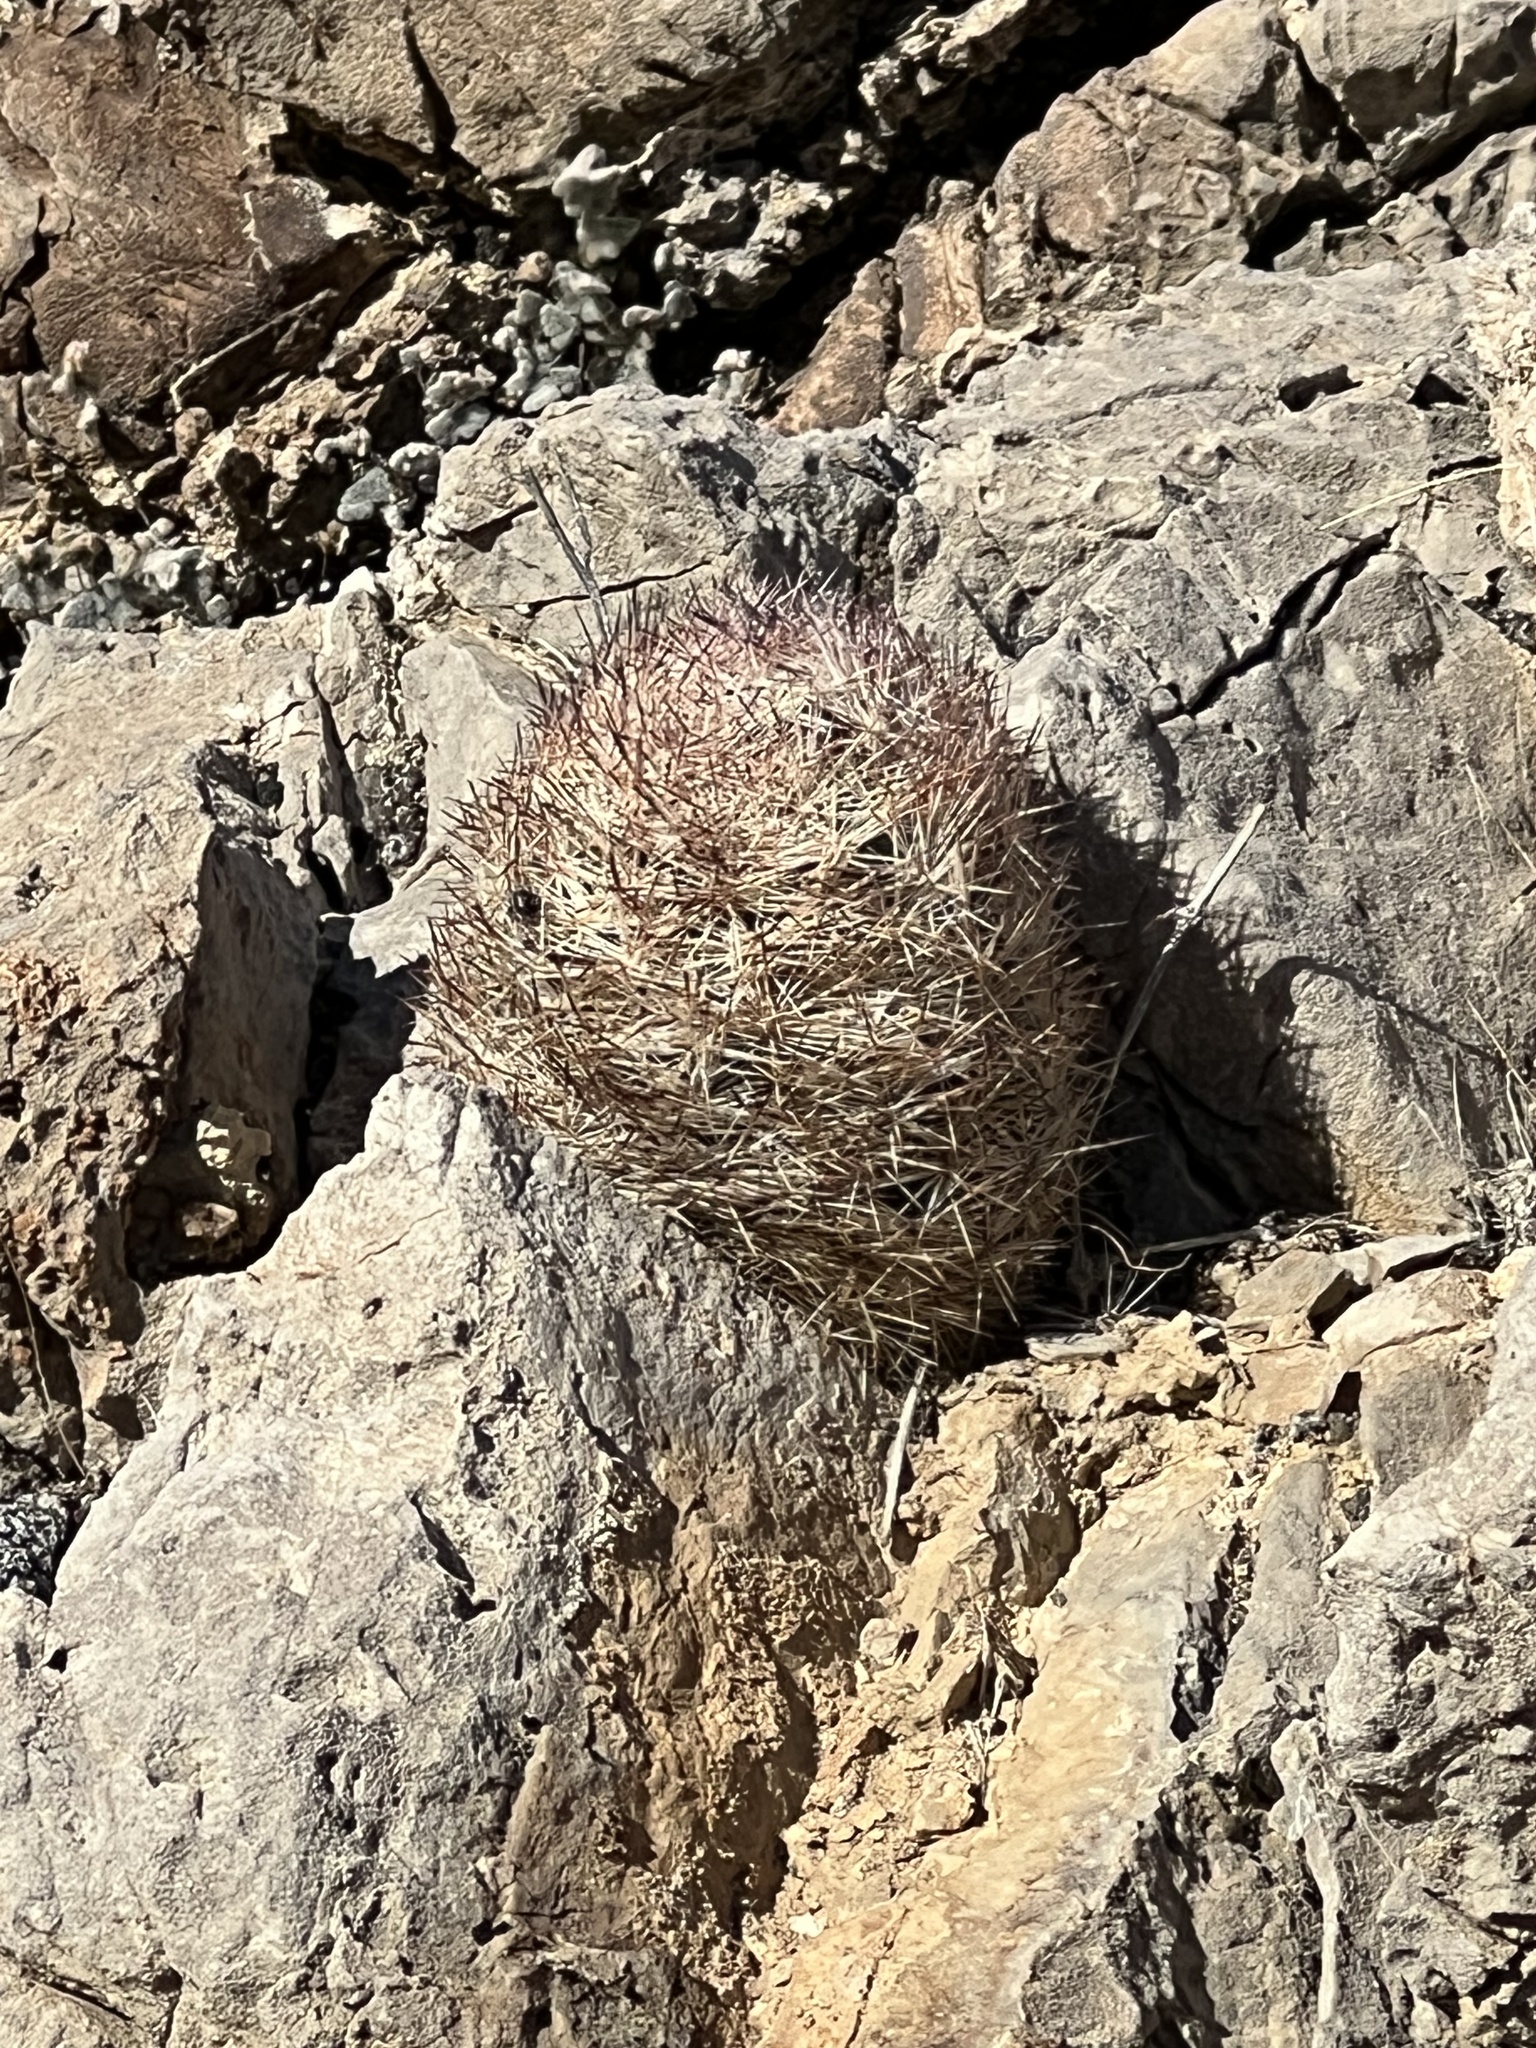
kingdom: Plantae
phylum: Tracheophyta
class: Magnoliopsida
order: Caryophyllales
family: Cactaceae
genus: Pelecyphora
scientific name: Pelecyphora dasyacantha
